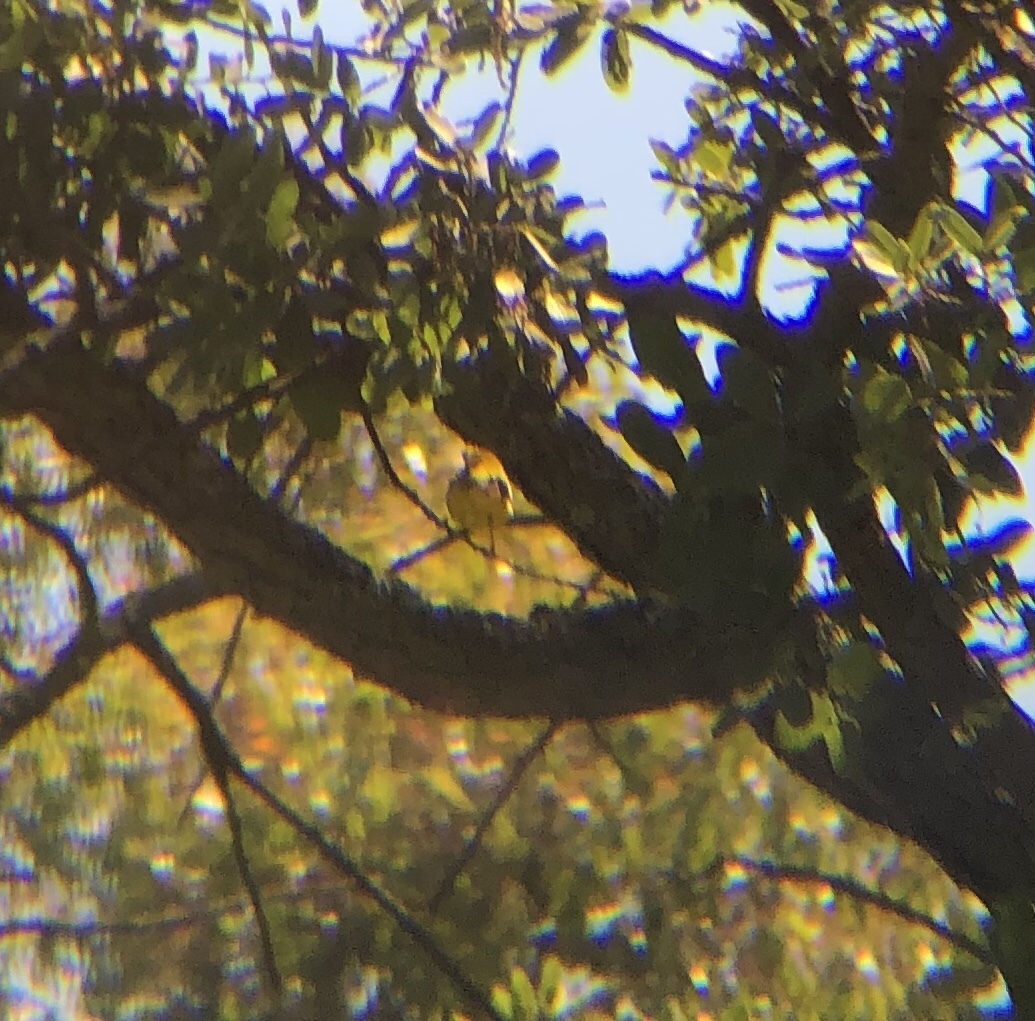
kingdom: Animalia
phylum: Chordata
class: Aves
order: Passeriformes
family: Parulidae
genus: Setophaga
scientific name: Setophaga petechia
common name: Yellow warbler
